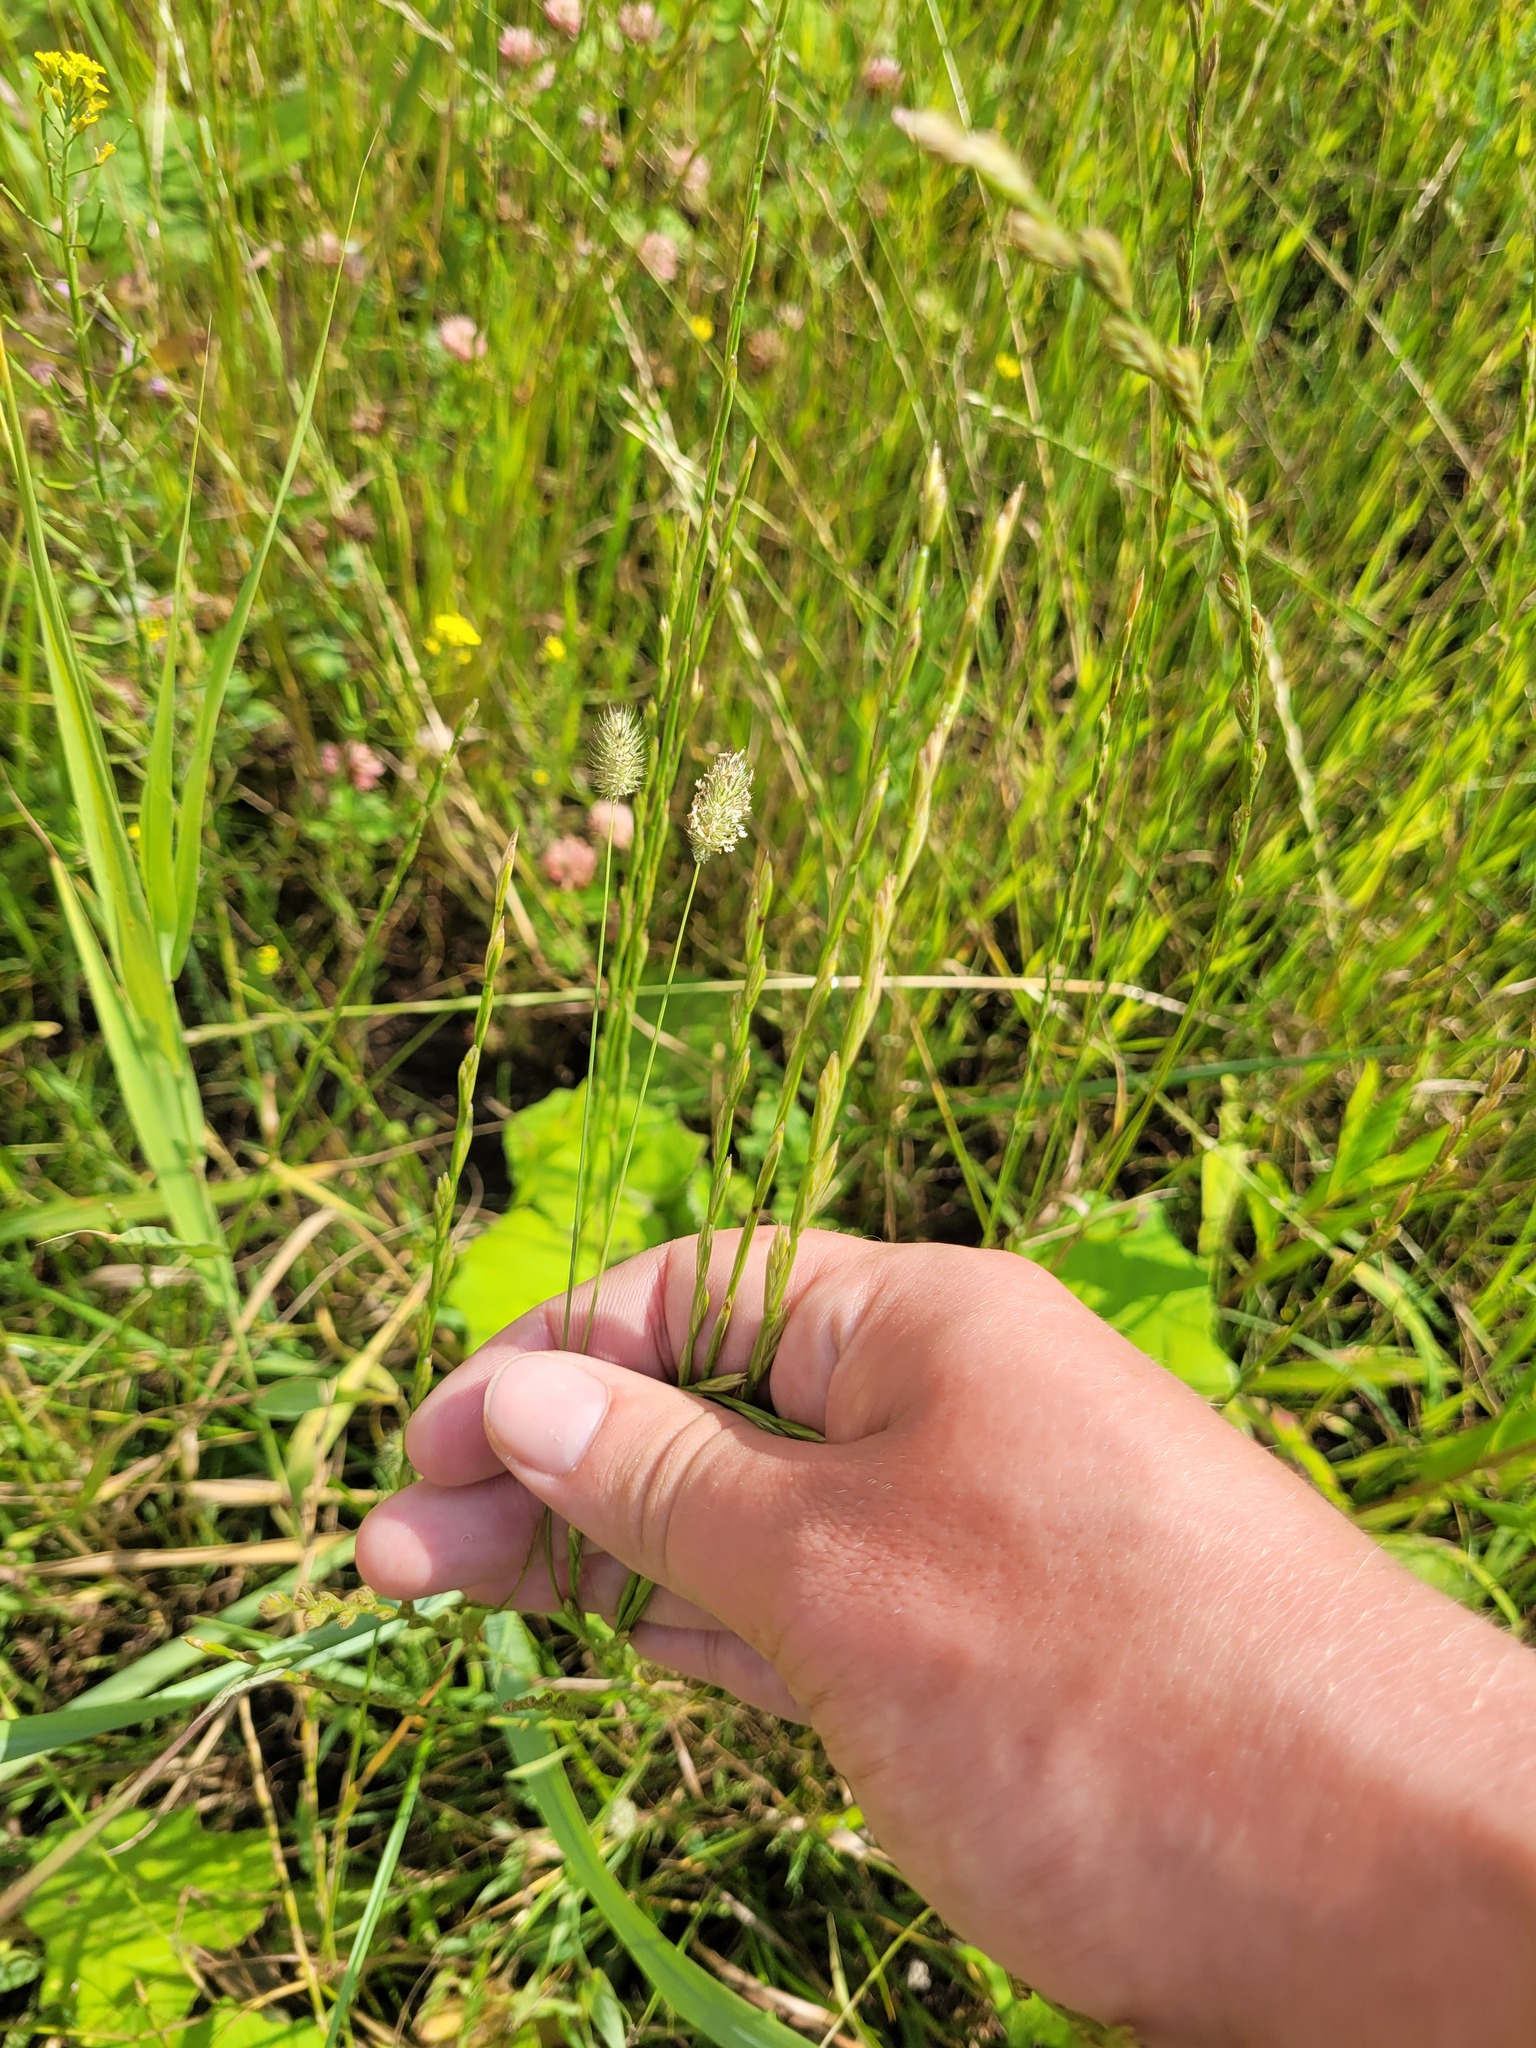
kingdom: Plantae
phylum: Tracheophyta
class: Liliopsida
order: Poales
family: Poaceae
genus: Phleum
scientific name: Phleum pratense
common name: Timothy grass
